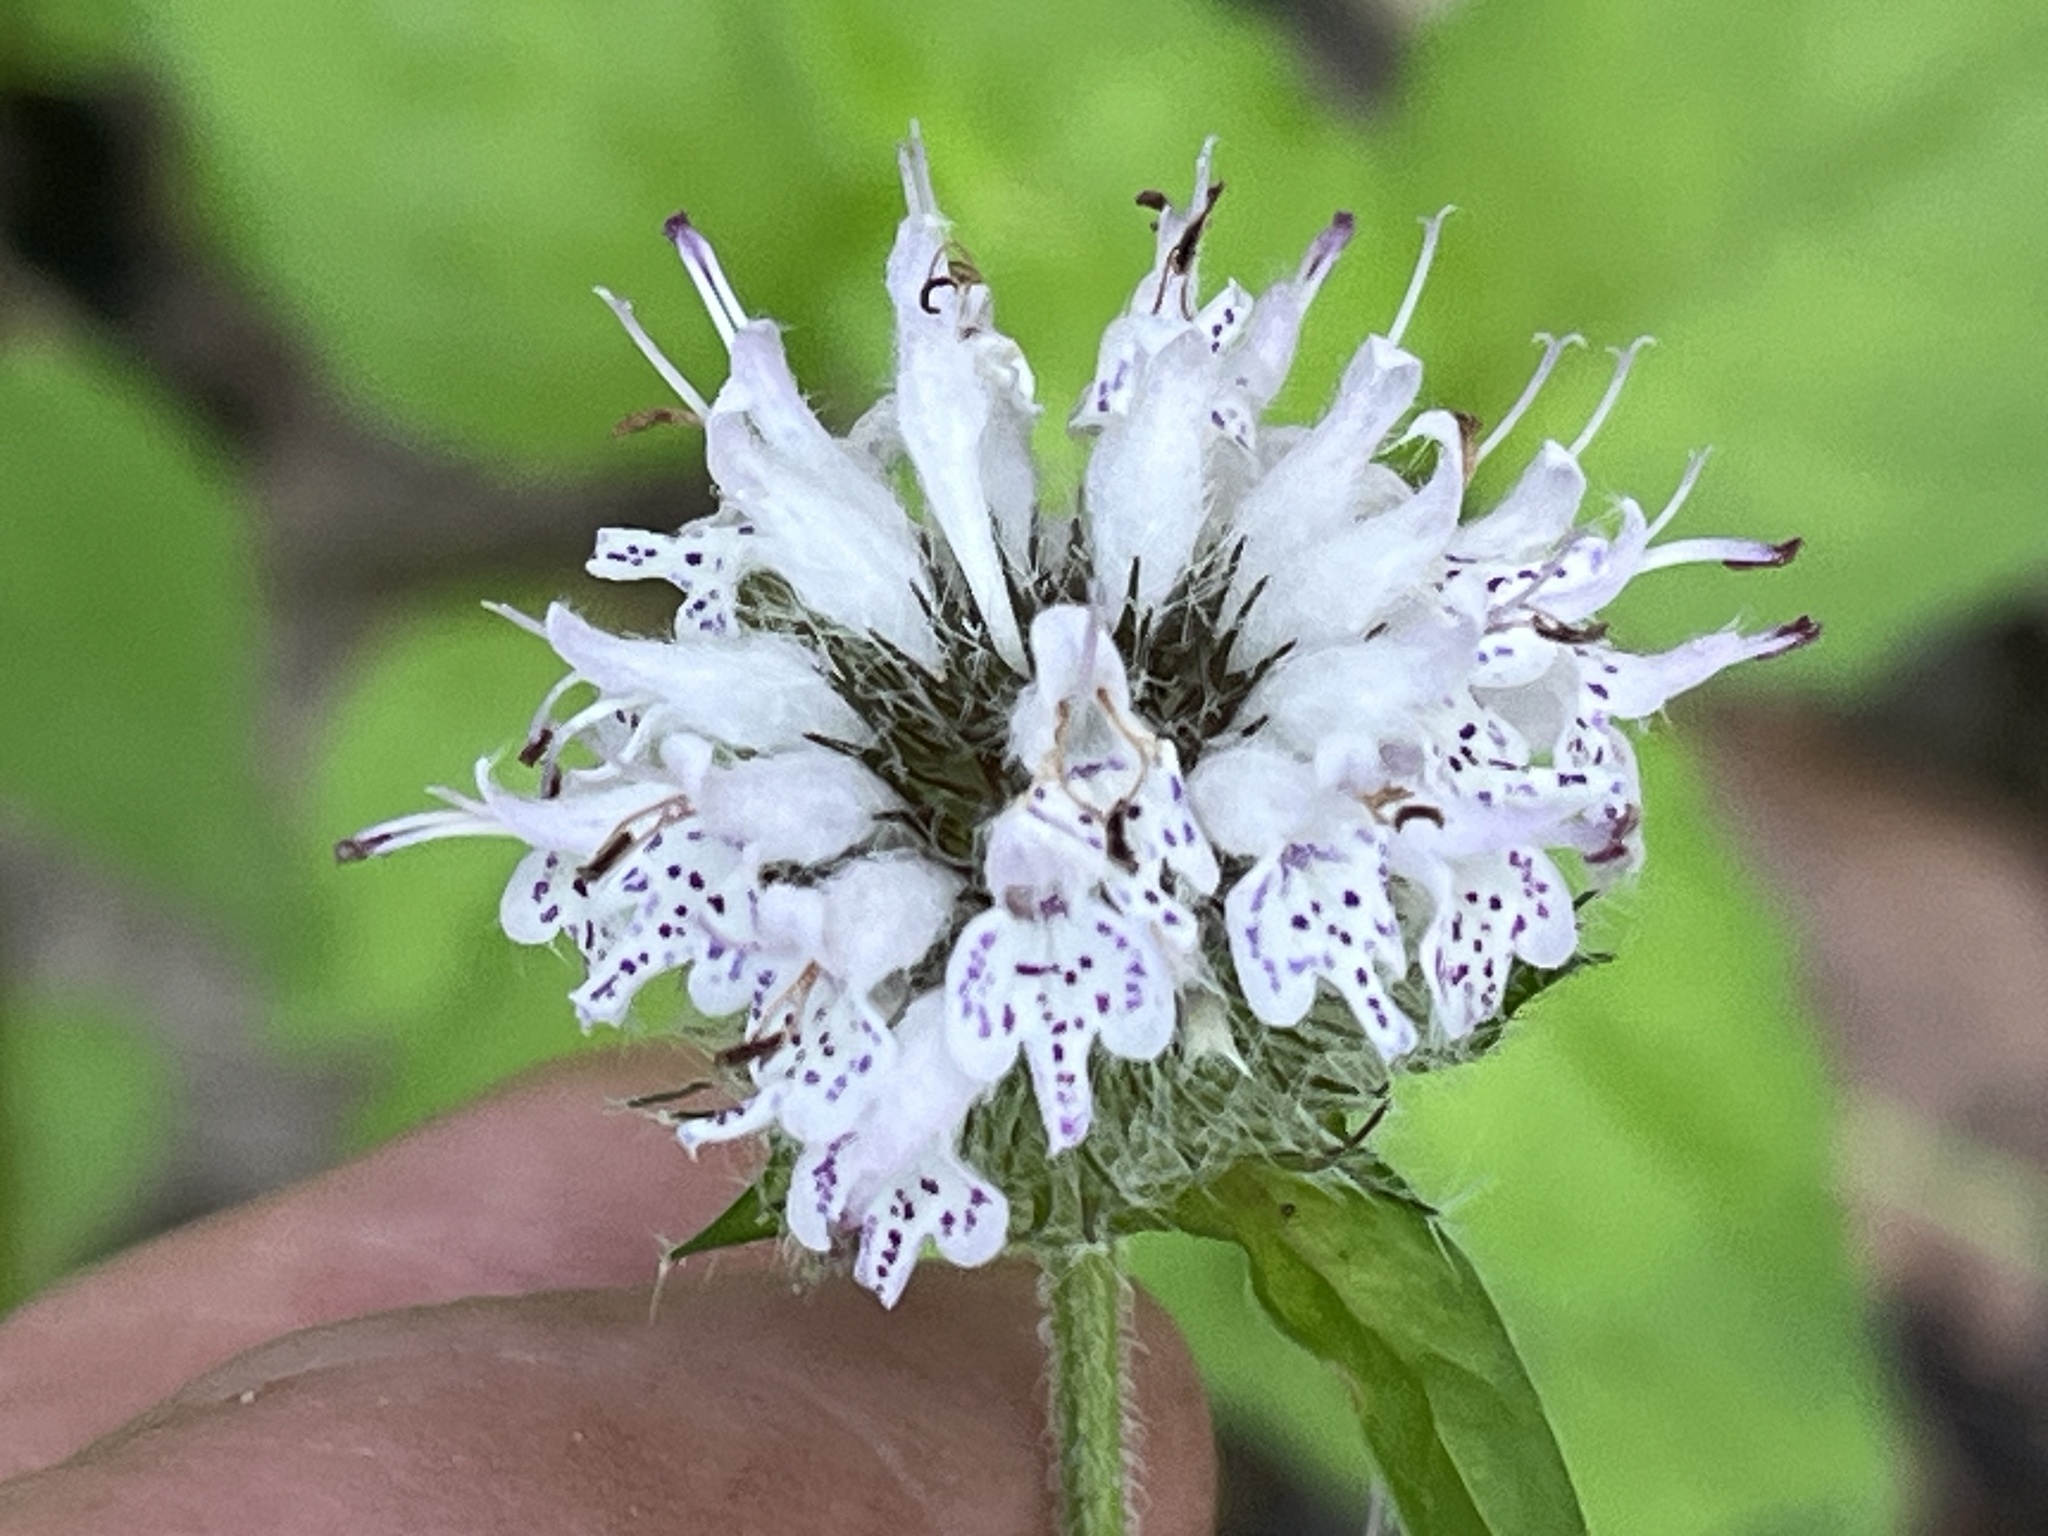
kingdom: Plantae
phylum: Tracheophyta
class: Magnoliopsida
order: Lamiales
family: Lamiaceae
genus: Blephilia
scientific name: Blephilia subnuda
